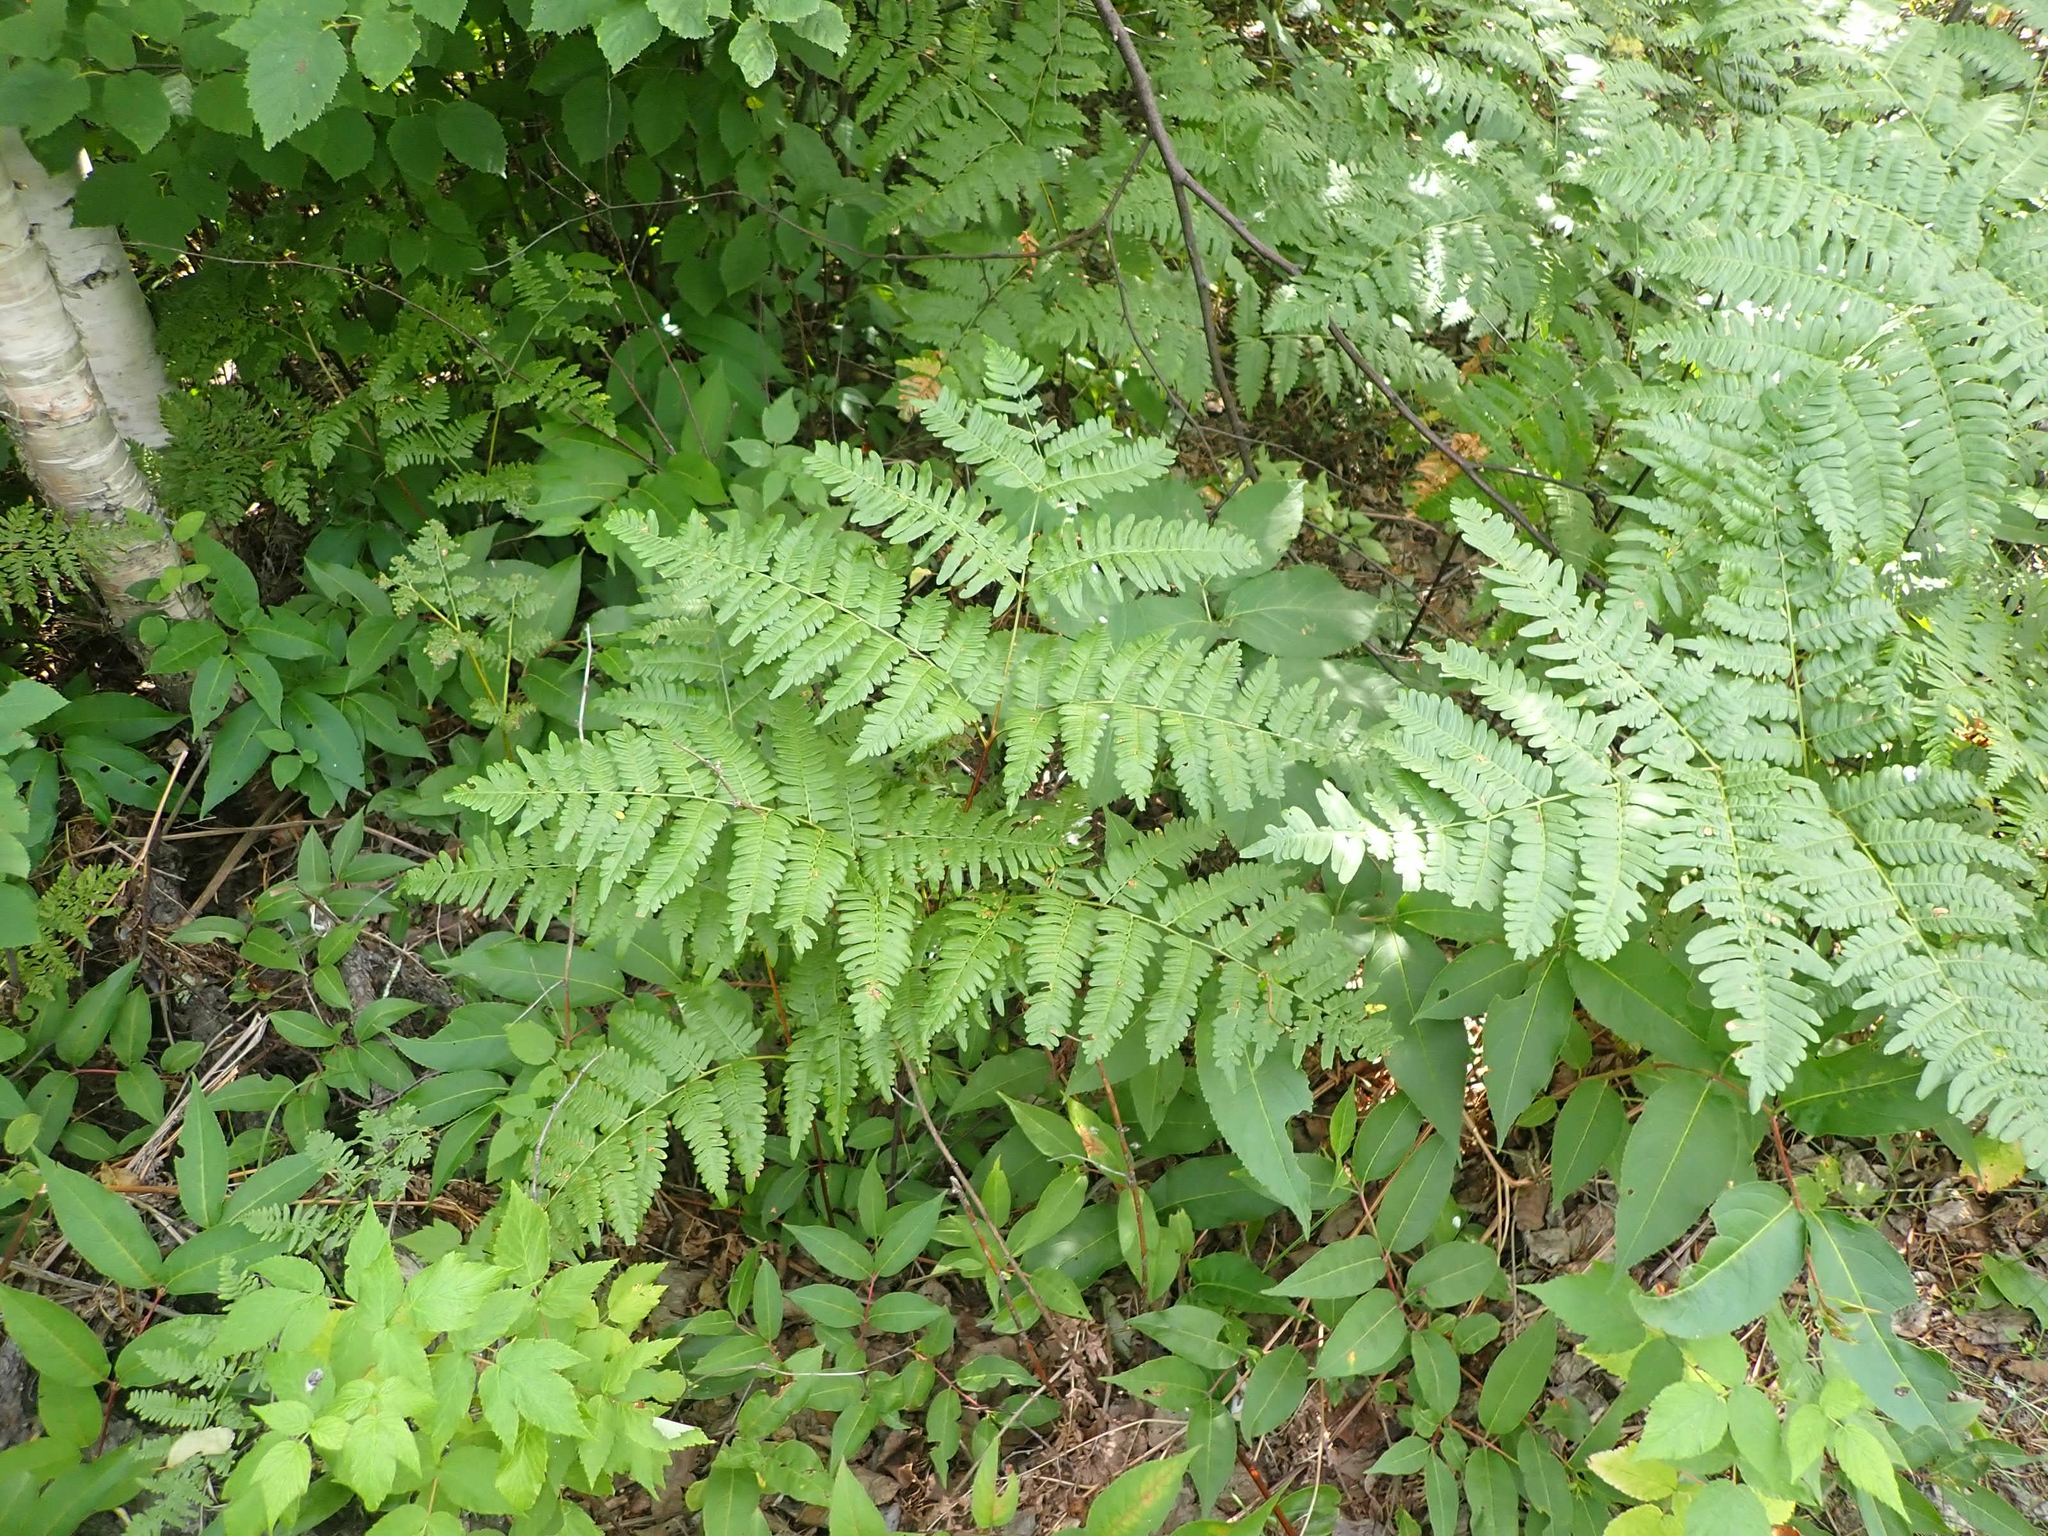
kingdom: Plantae
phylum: Tracheophyta
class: Polypodiopsida
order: Polypodiales
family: Dennstaedtiaceae
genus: Pteridium
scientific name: Pteridium aquilinum
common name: Bracken
